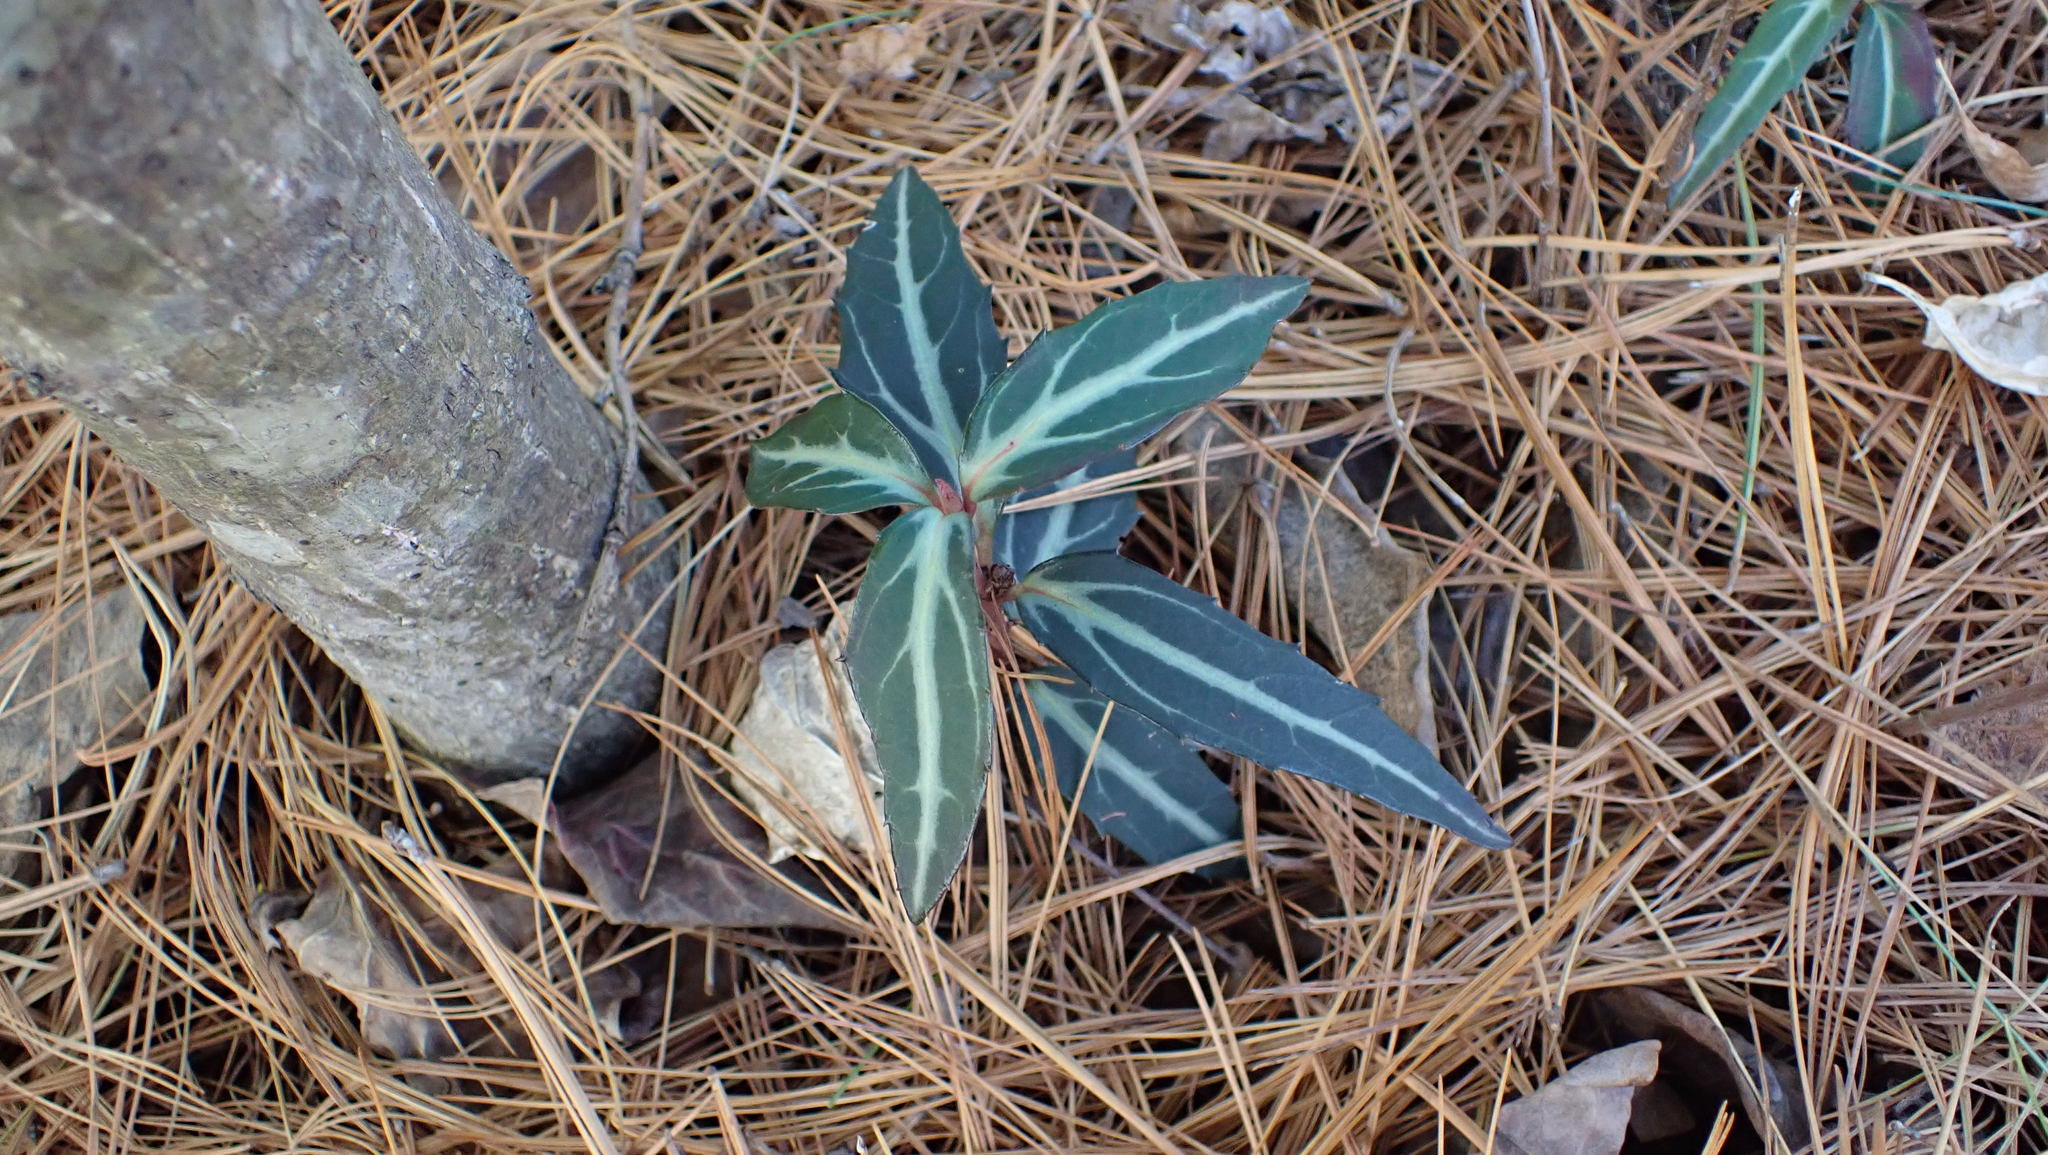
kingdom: Plantae
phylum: Tracheophyta
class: Magnoliopsida
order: Ericales
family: Ericaceae
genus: Chimaphila
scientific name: Chimaphila maculata
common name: Spotted pipsissewa
